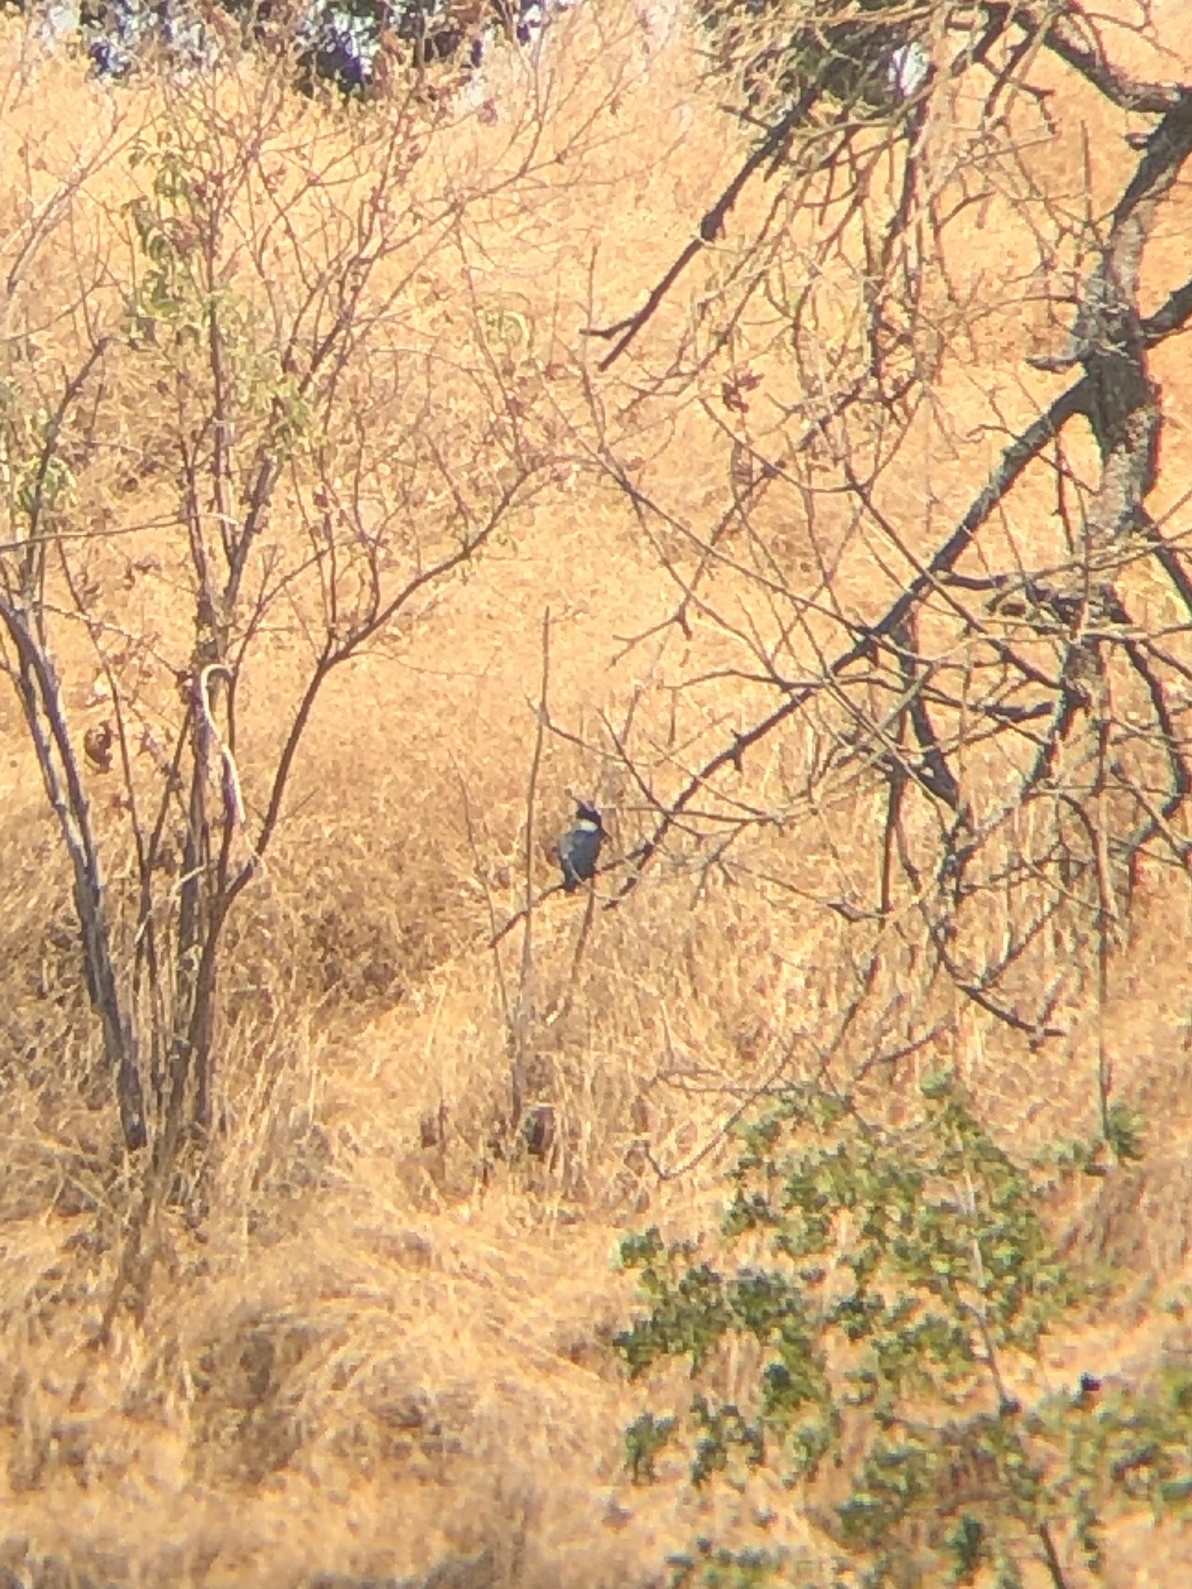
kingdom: Animalia
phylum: Chordata
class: Aves
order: Coraciiformes
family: Alcedinidae
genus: Megaceryle
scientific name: Megaceryle alcyon
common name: Belted kingfisher
